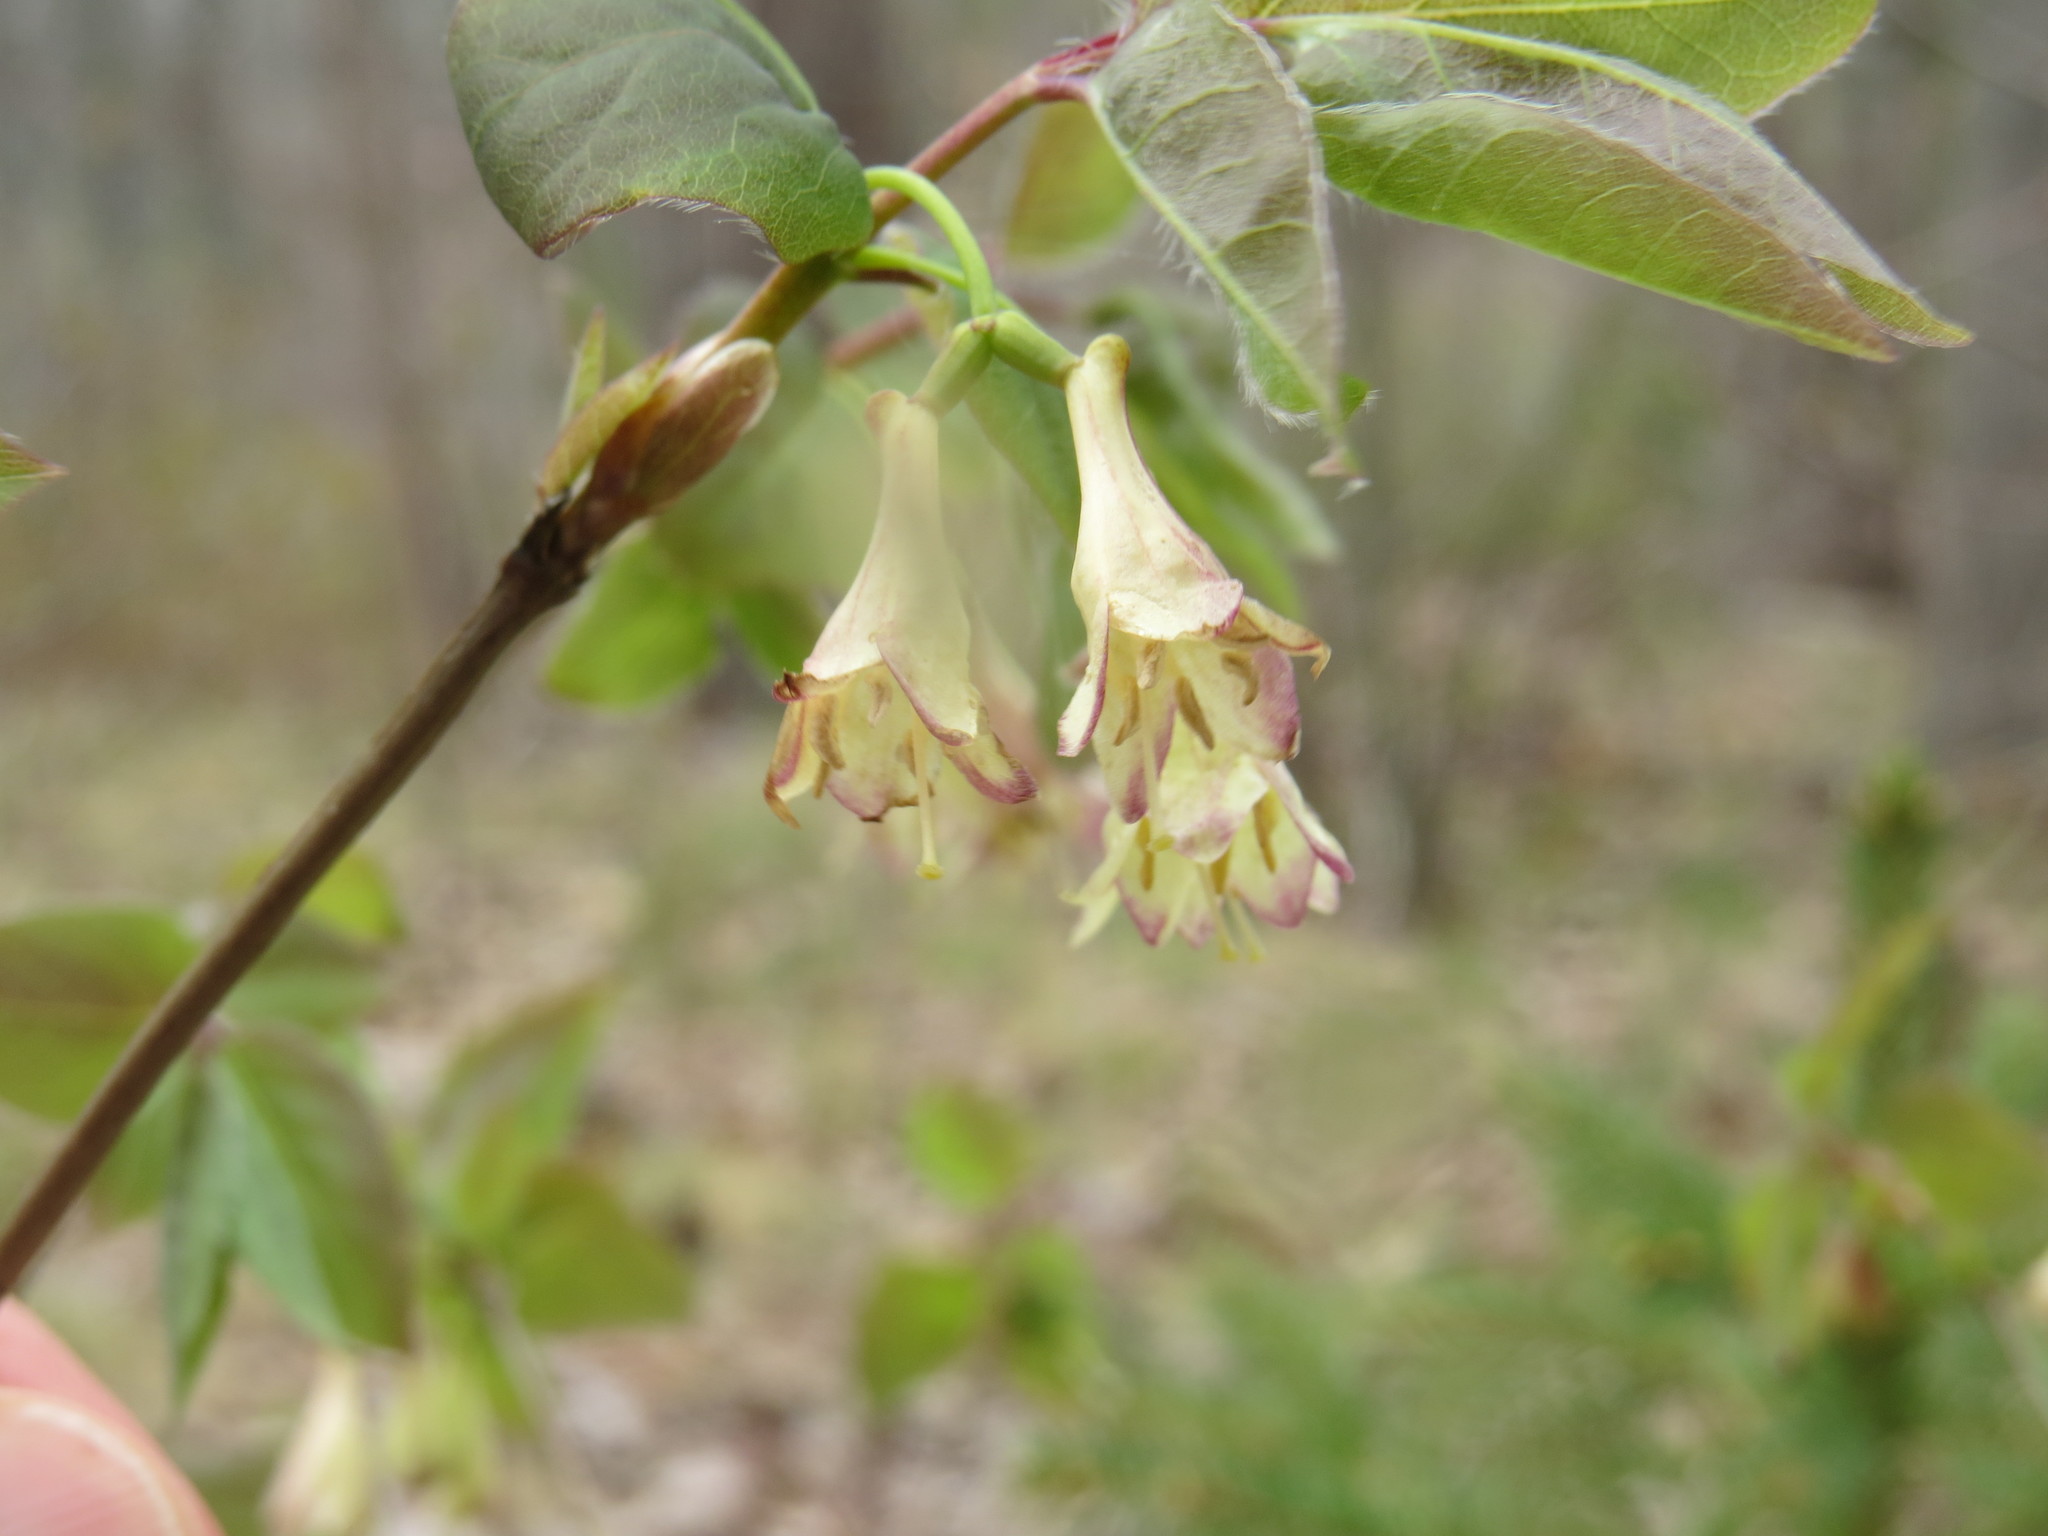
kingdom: Plantae
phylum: Tracheophyta
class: Magnoliopsida
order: Dipsacales
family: Caprifoliaceae
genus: Lonicera
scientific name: Lonicera canadensis
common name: American fly-honeysuckle
